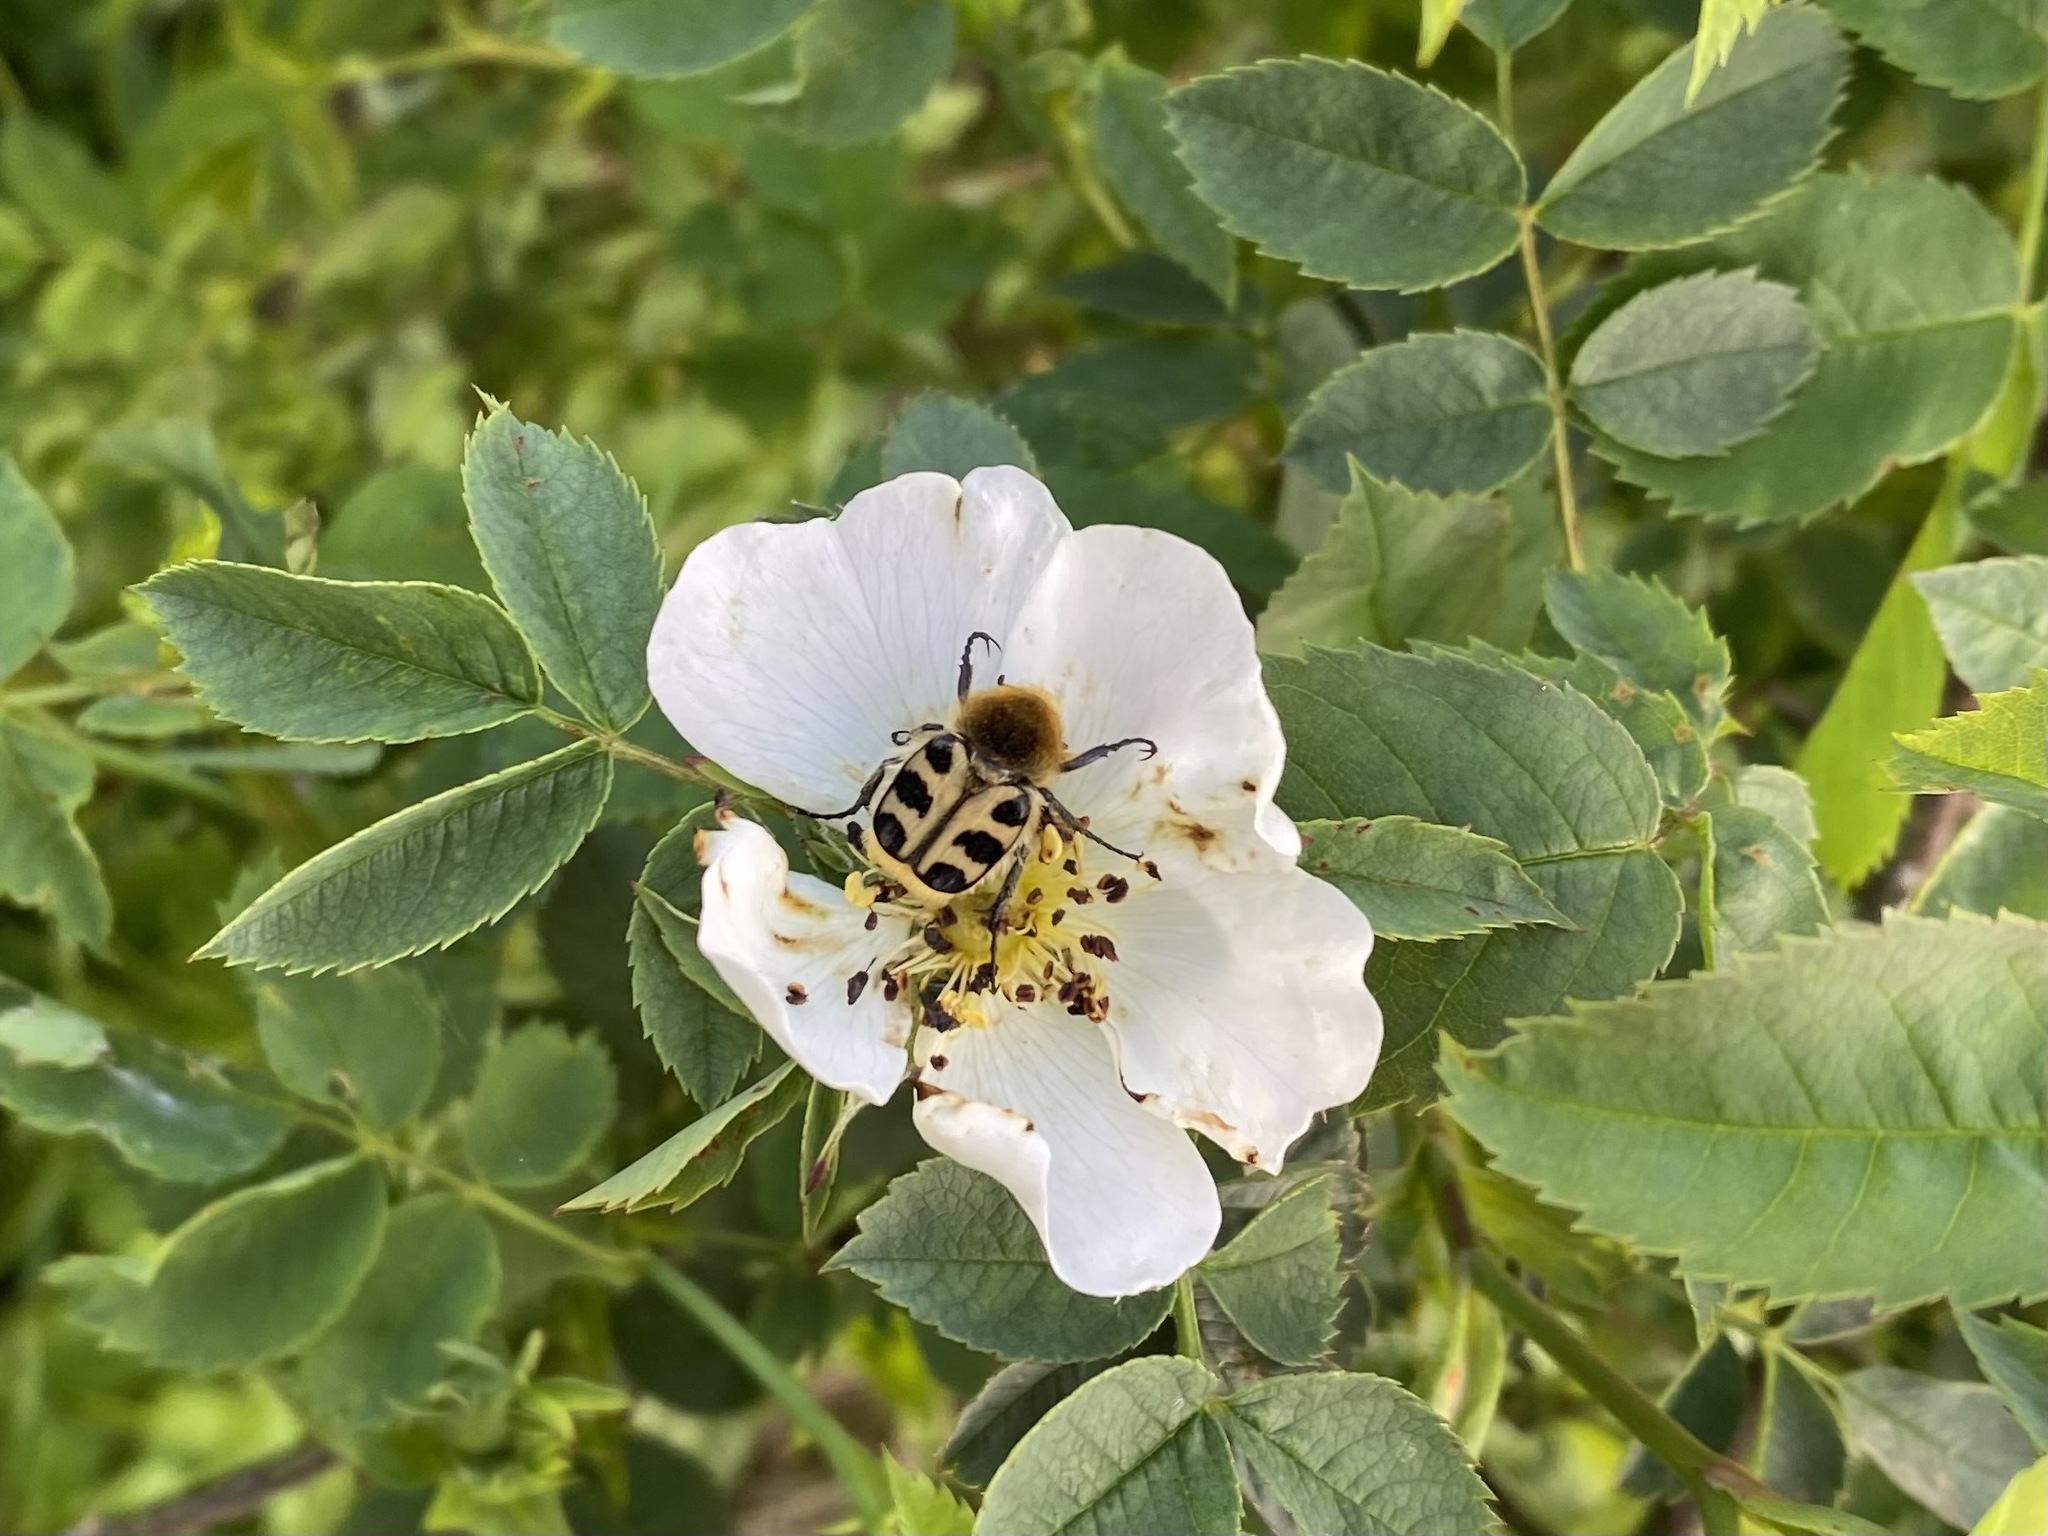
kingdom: Animalia
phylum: Arthropoda
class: Insecta
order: Coleoptera
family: Scarabaeidae
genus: Trichius
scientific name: Trichius gallicus
